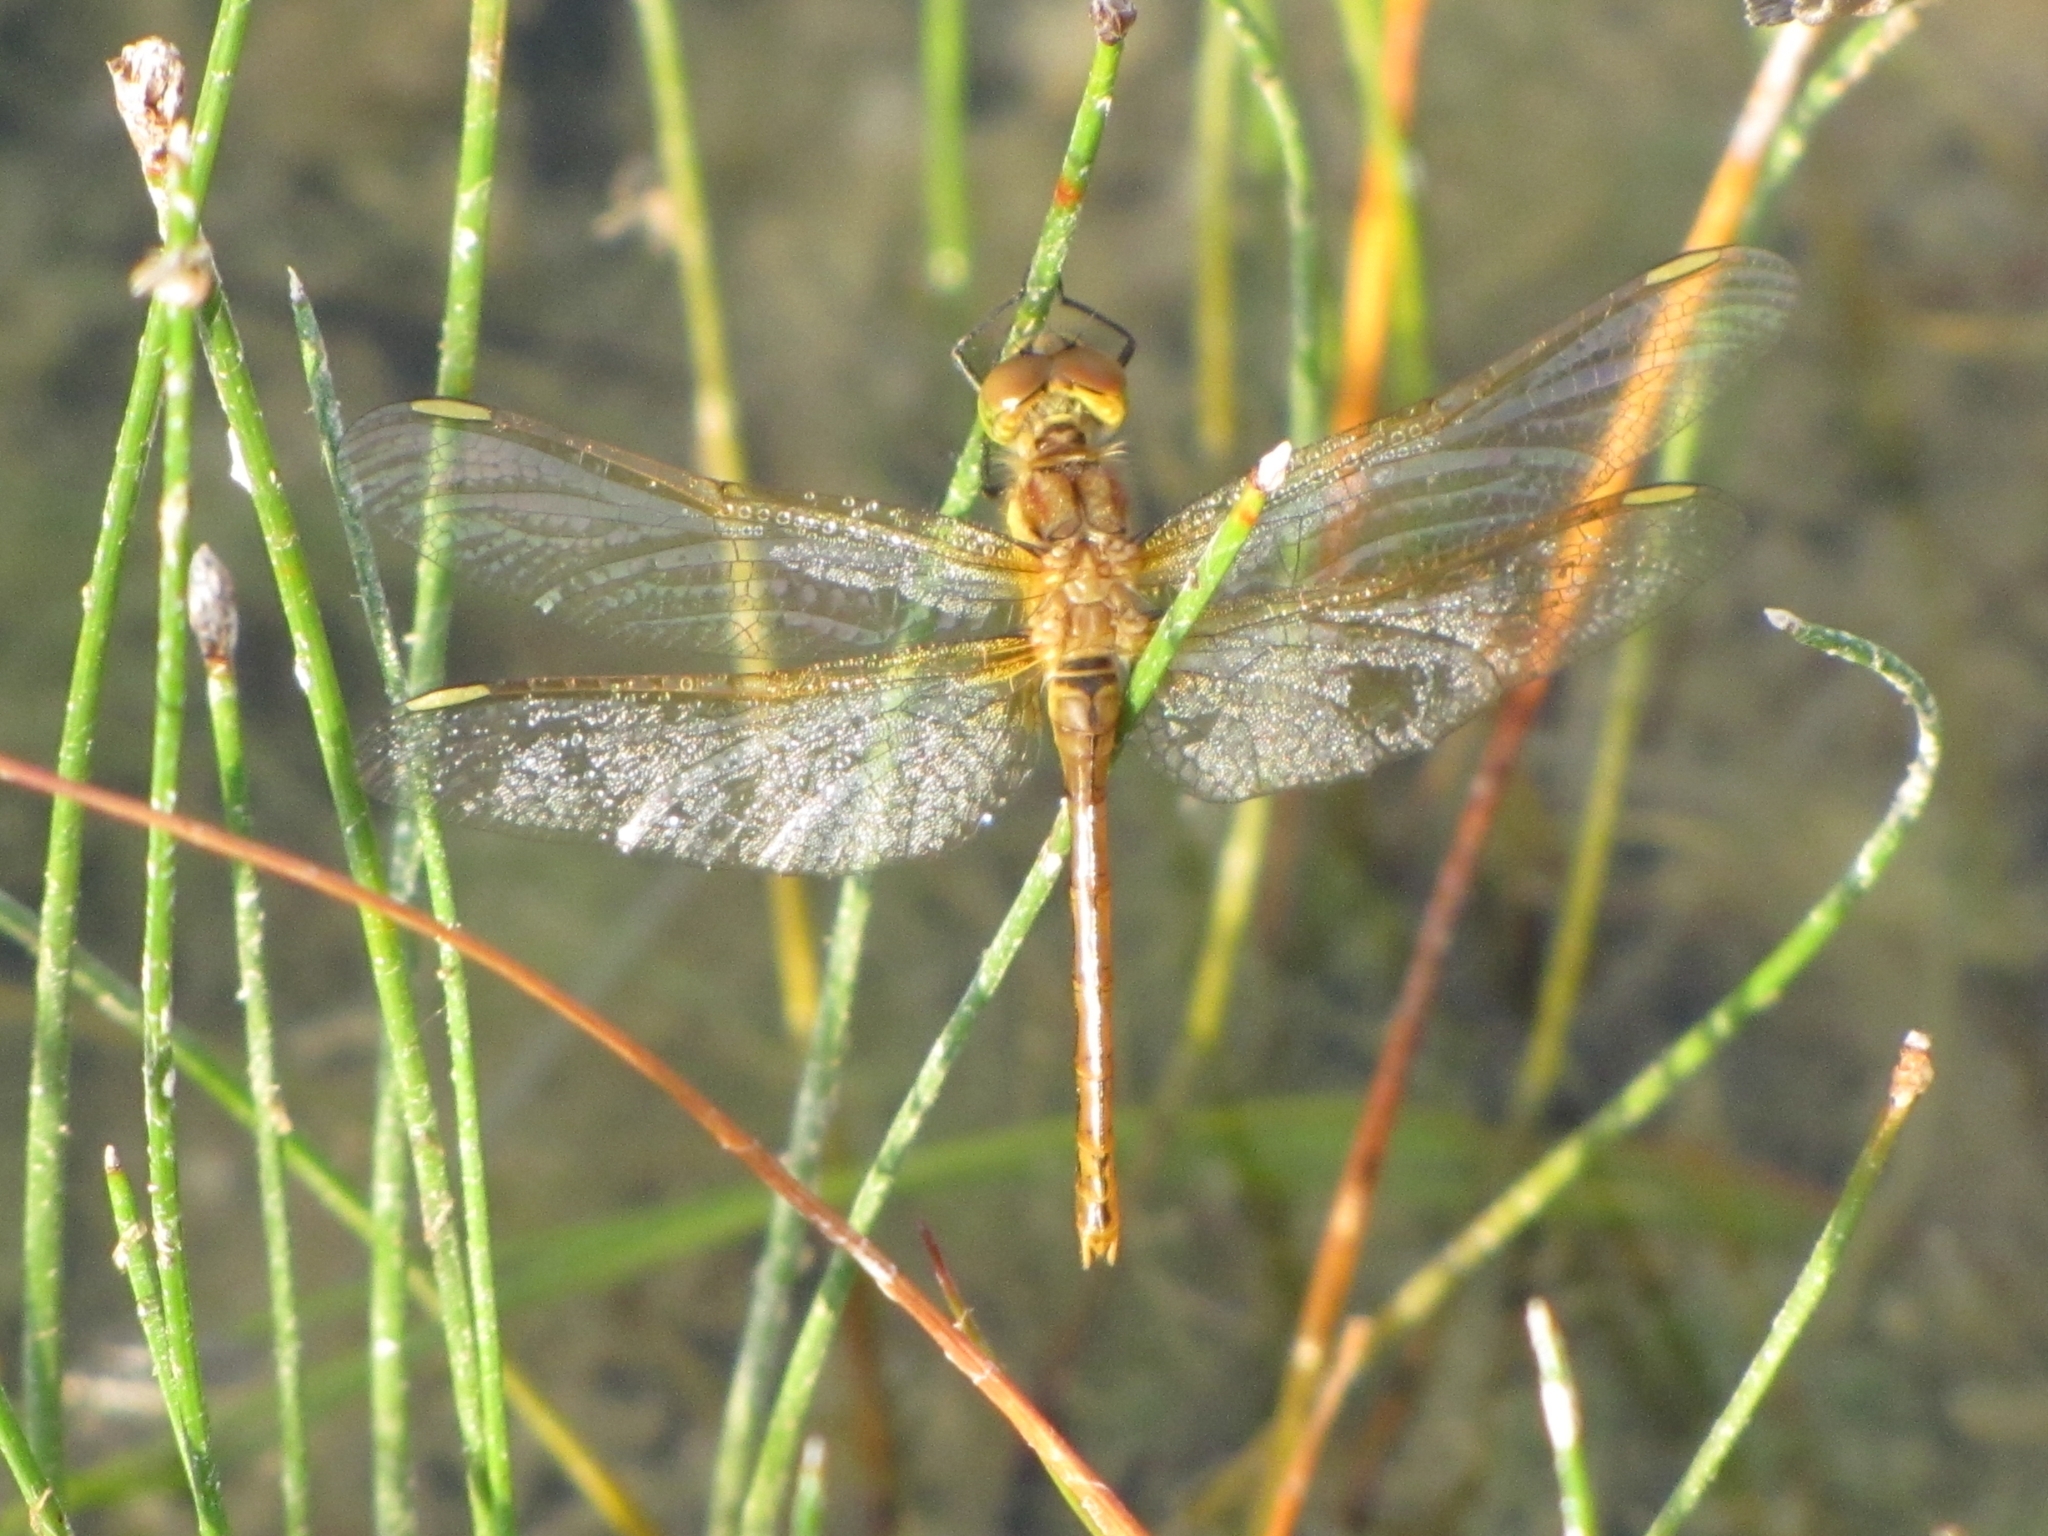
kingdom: Animalia
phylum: Arthropoda
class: Insecta
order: Odonata
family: Libellulidae
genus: Sympetrum
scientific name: Sympetrum costiferum
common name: Saffron-winged meadowhawk
